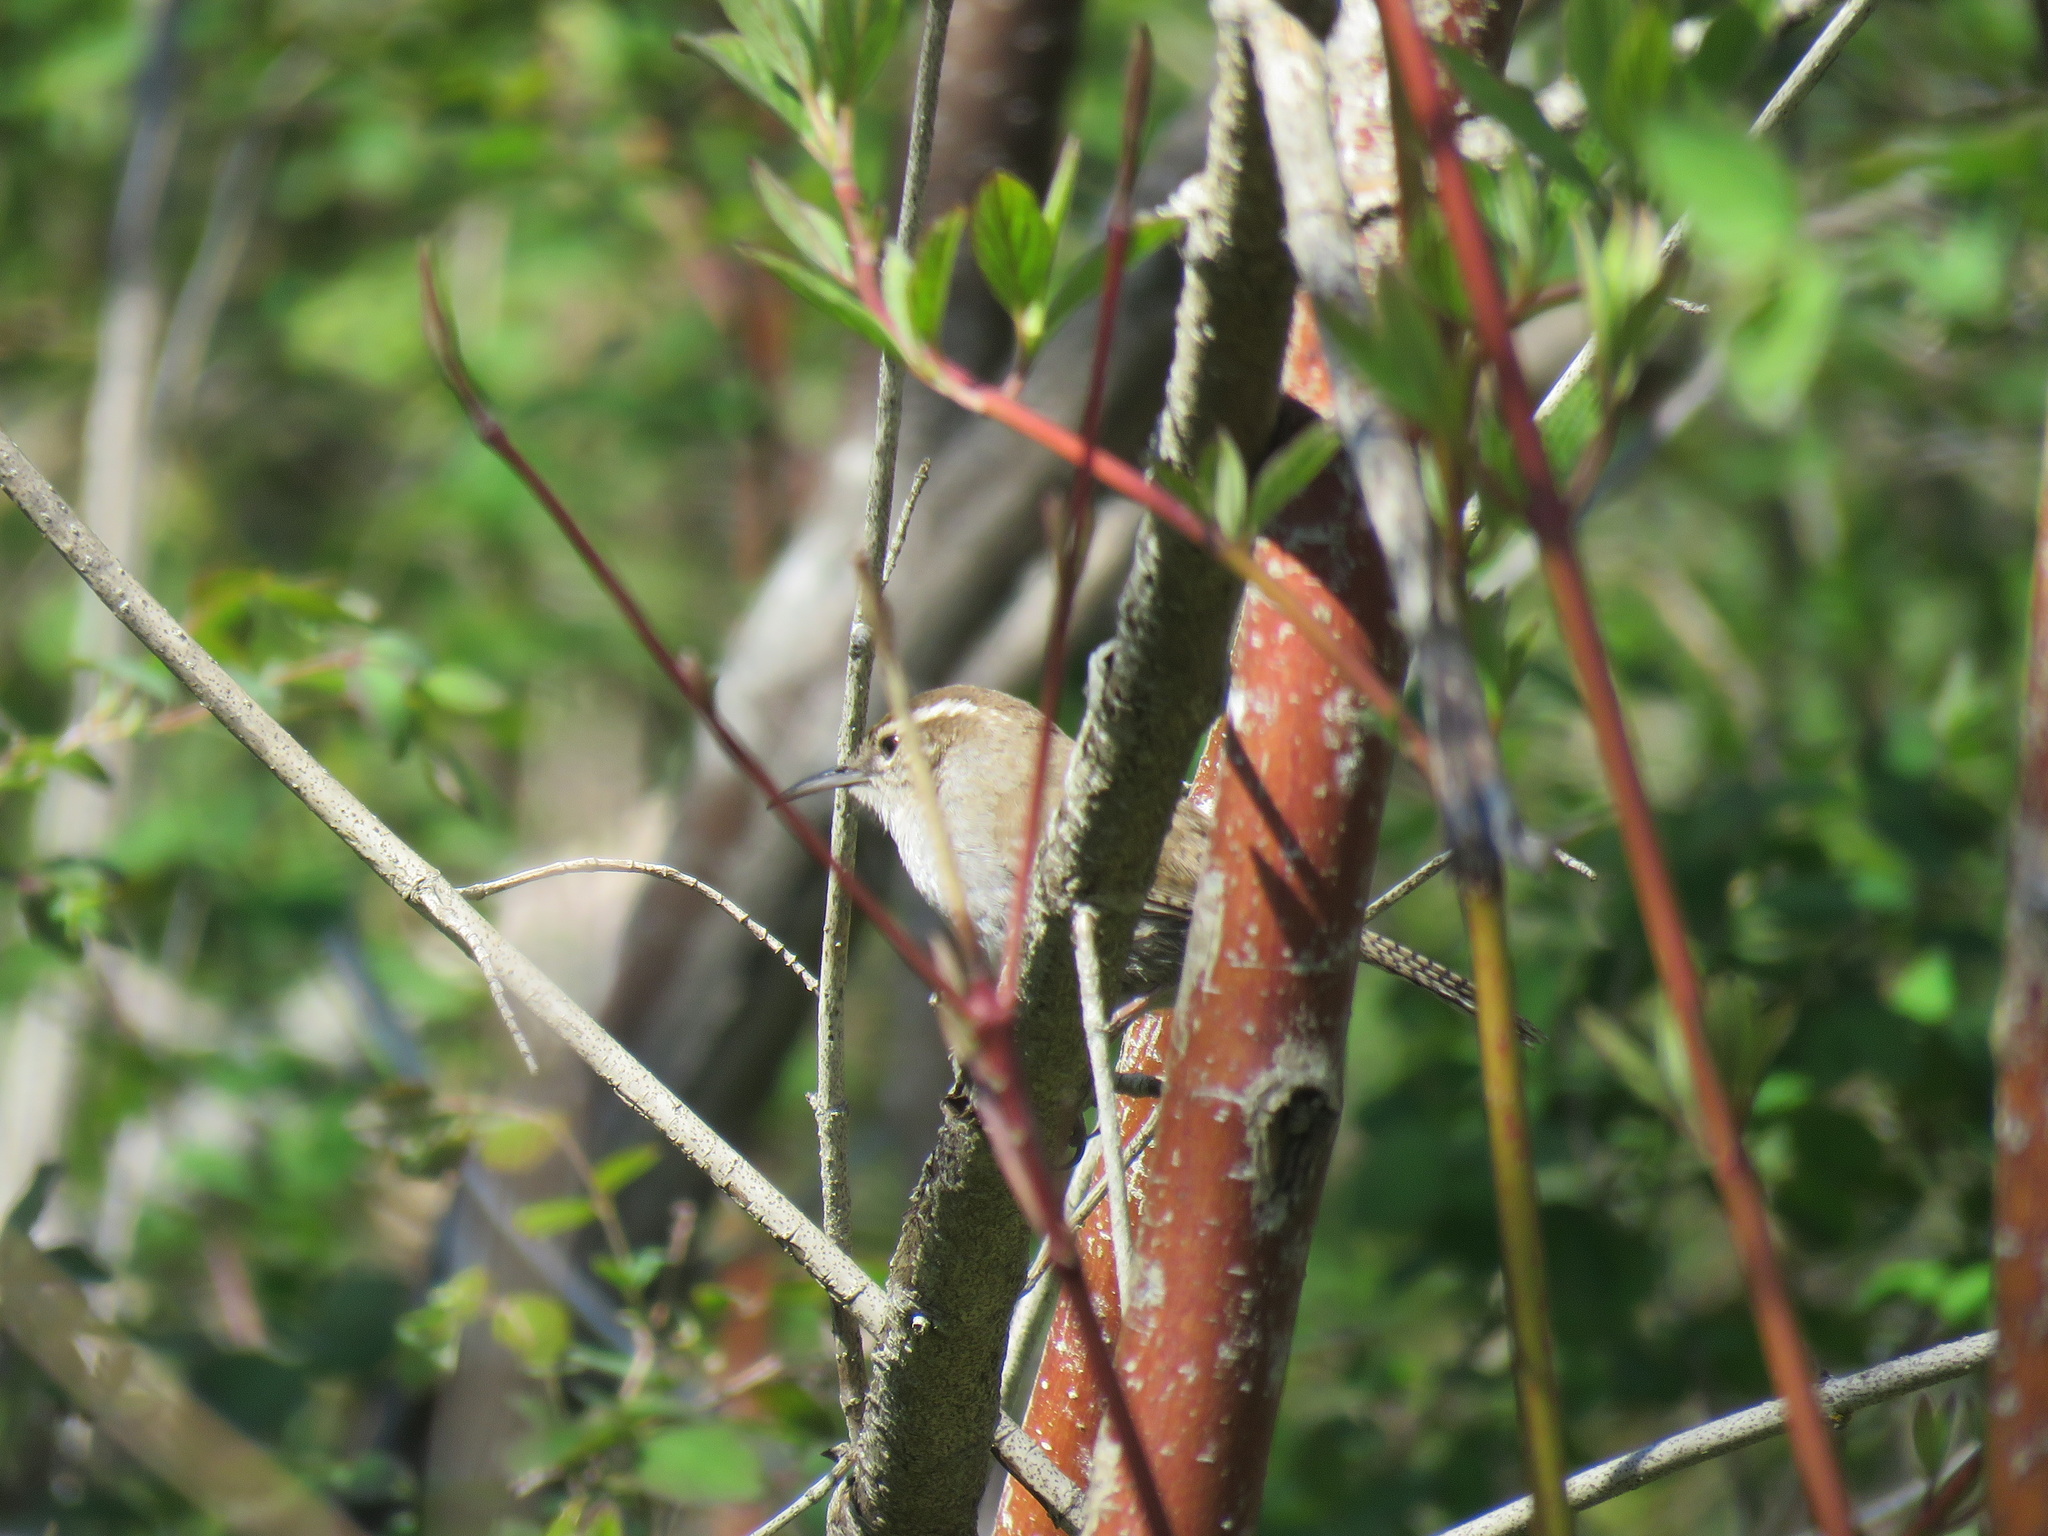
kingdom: Animalia
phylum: Chordata
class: Aves
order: Passeriformes
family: Troglodytidae
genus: Thryomanes
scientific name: Thryomanes bewickii
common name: Bewick's wren
